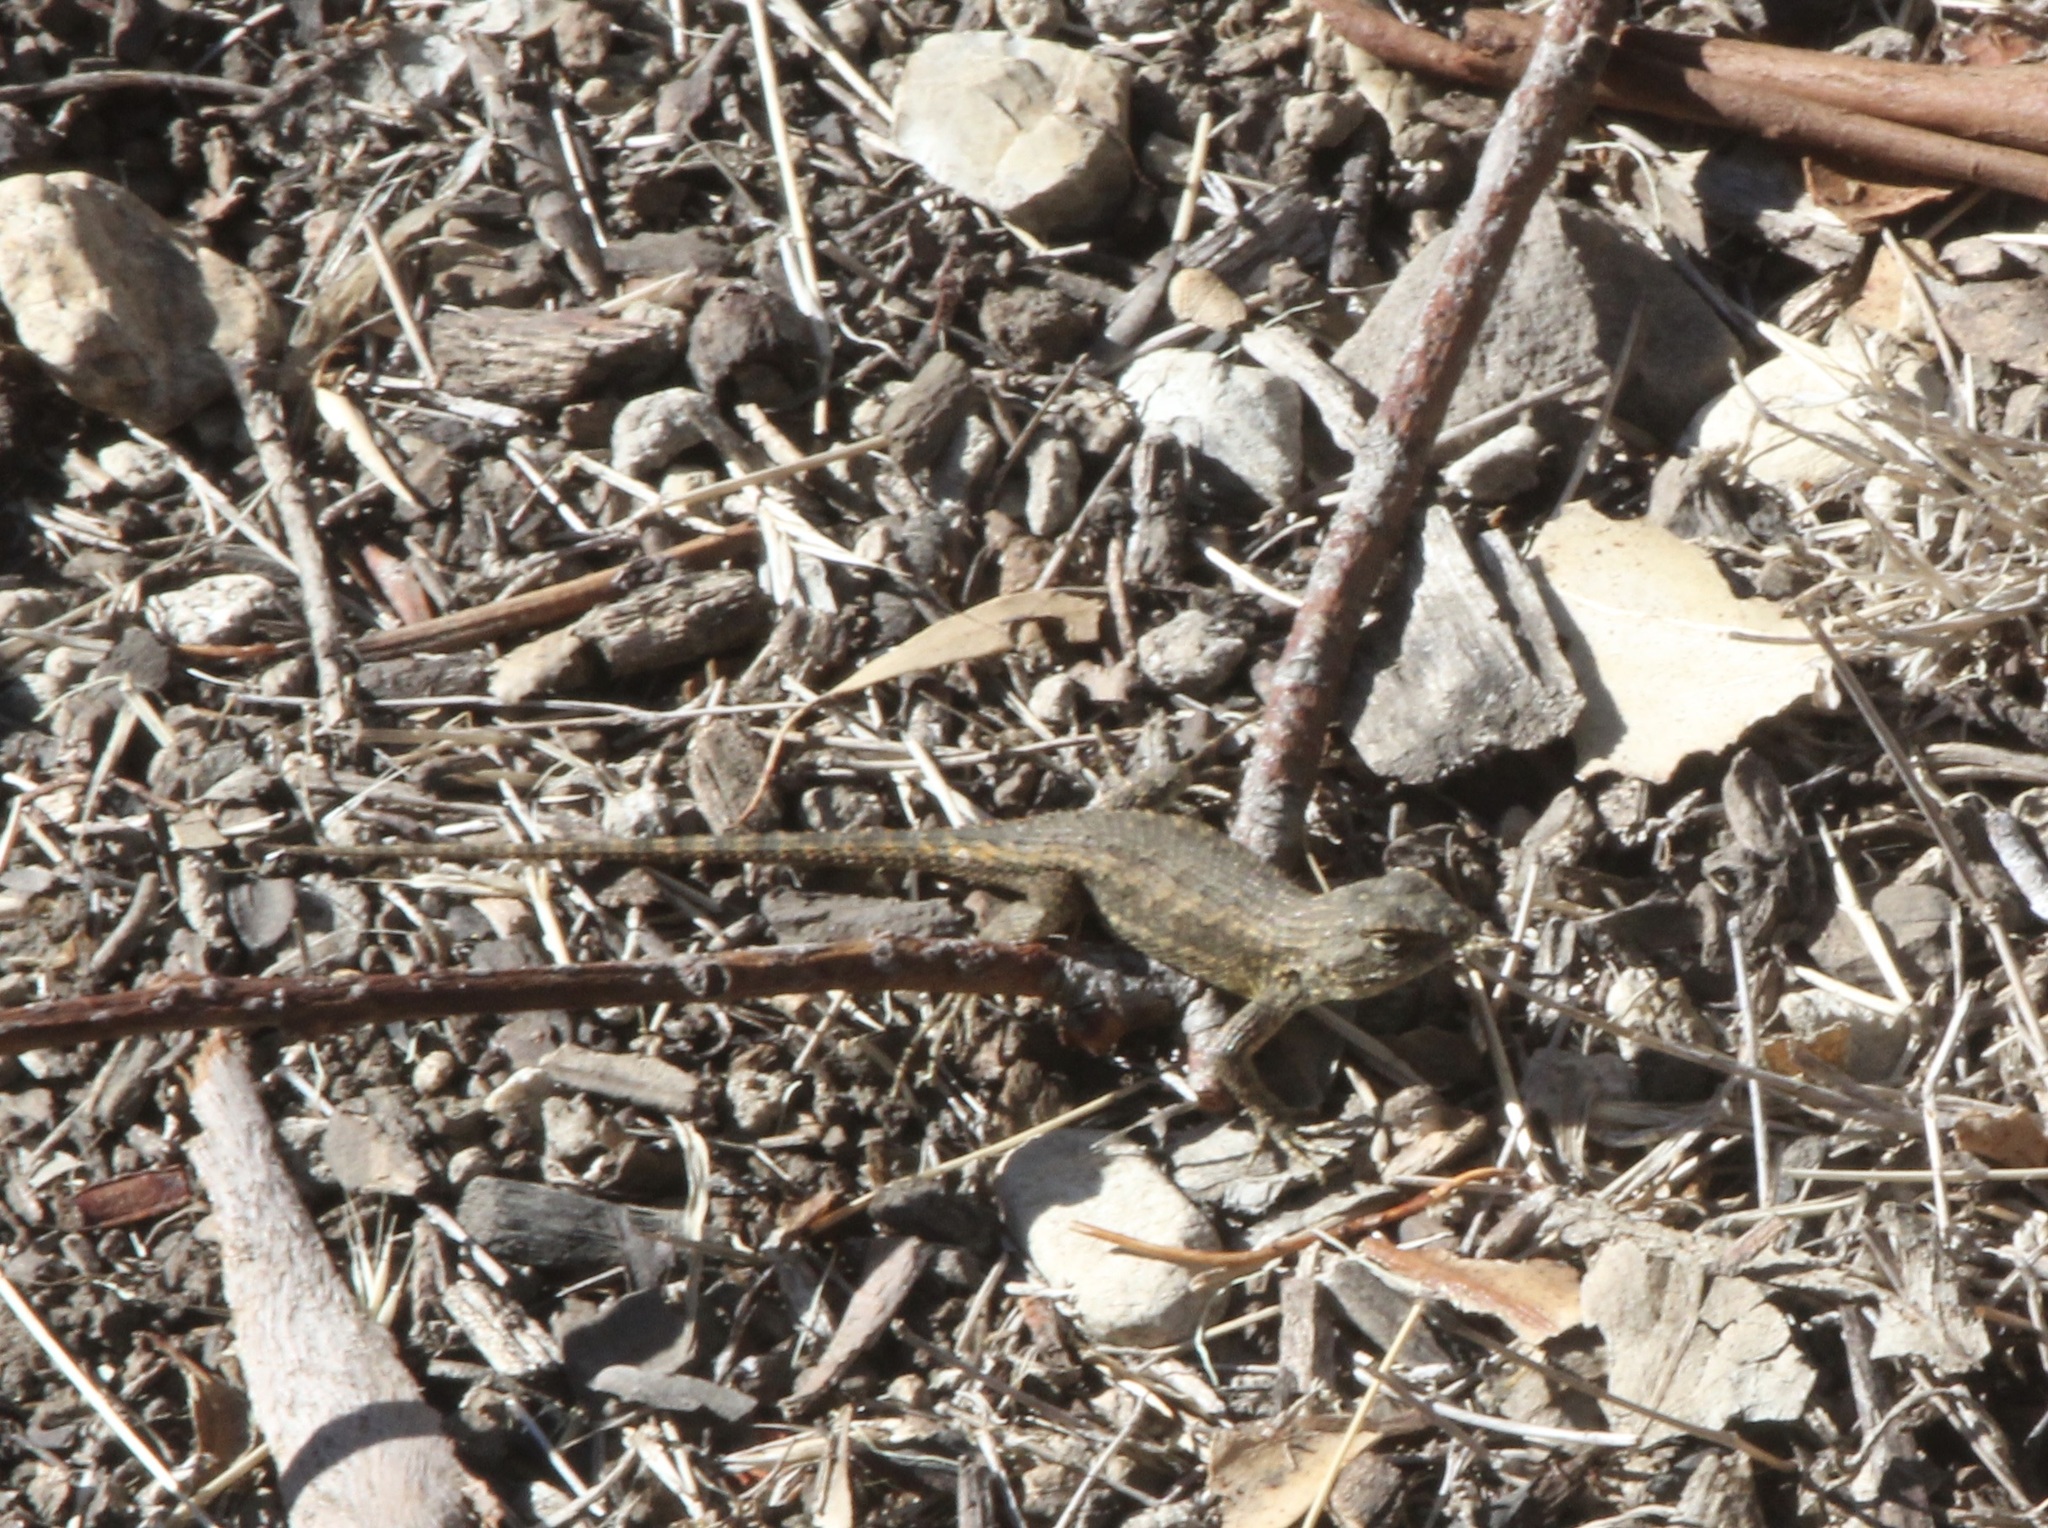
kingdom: Animalia
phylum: Chordata
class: Squamata
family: Phrynosomatidae
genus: Sceloporus
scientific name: Sceloporus occidentalis
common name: Western fence lizard
